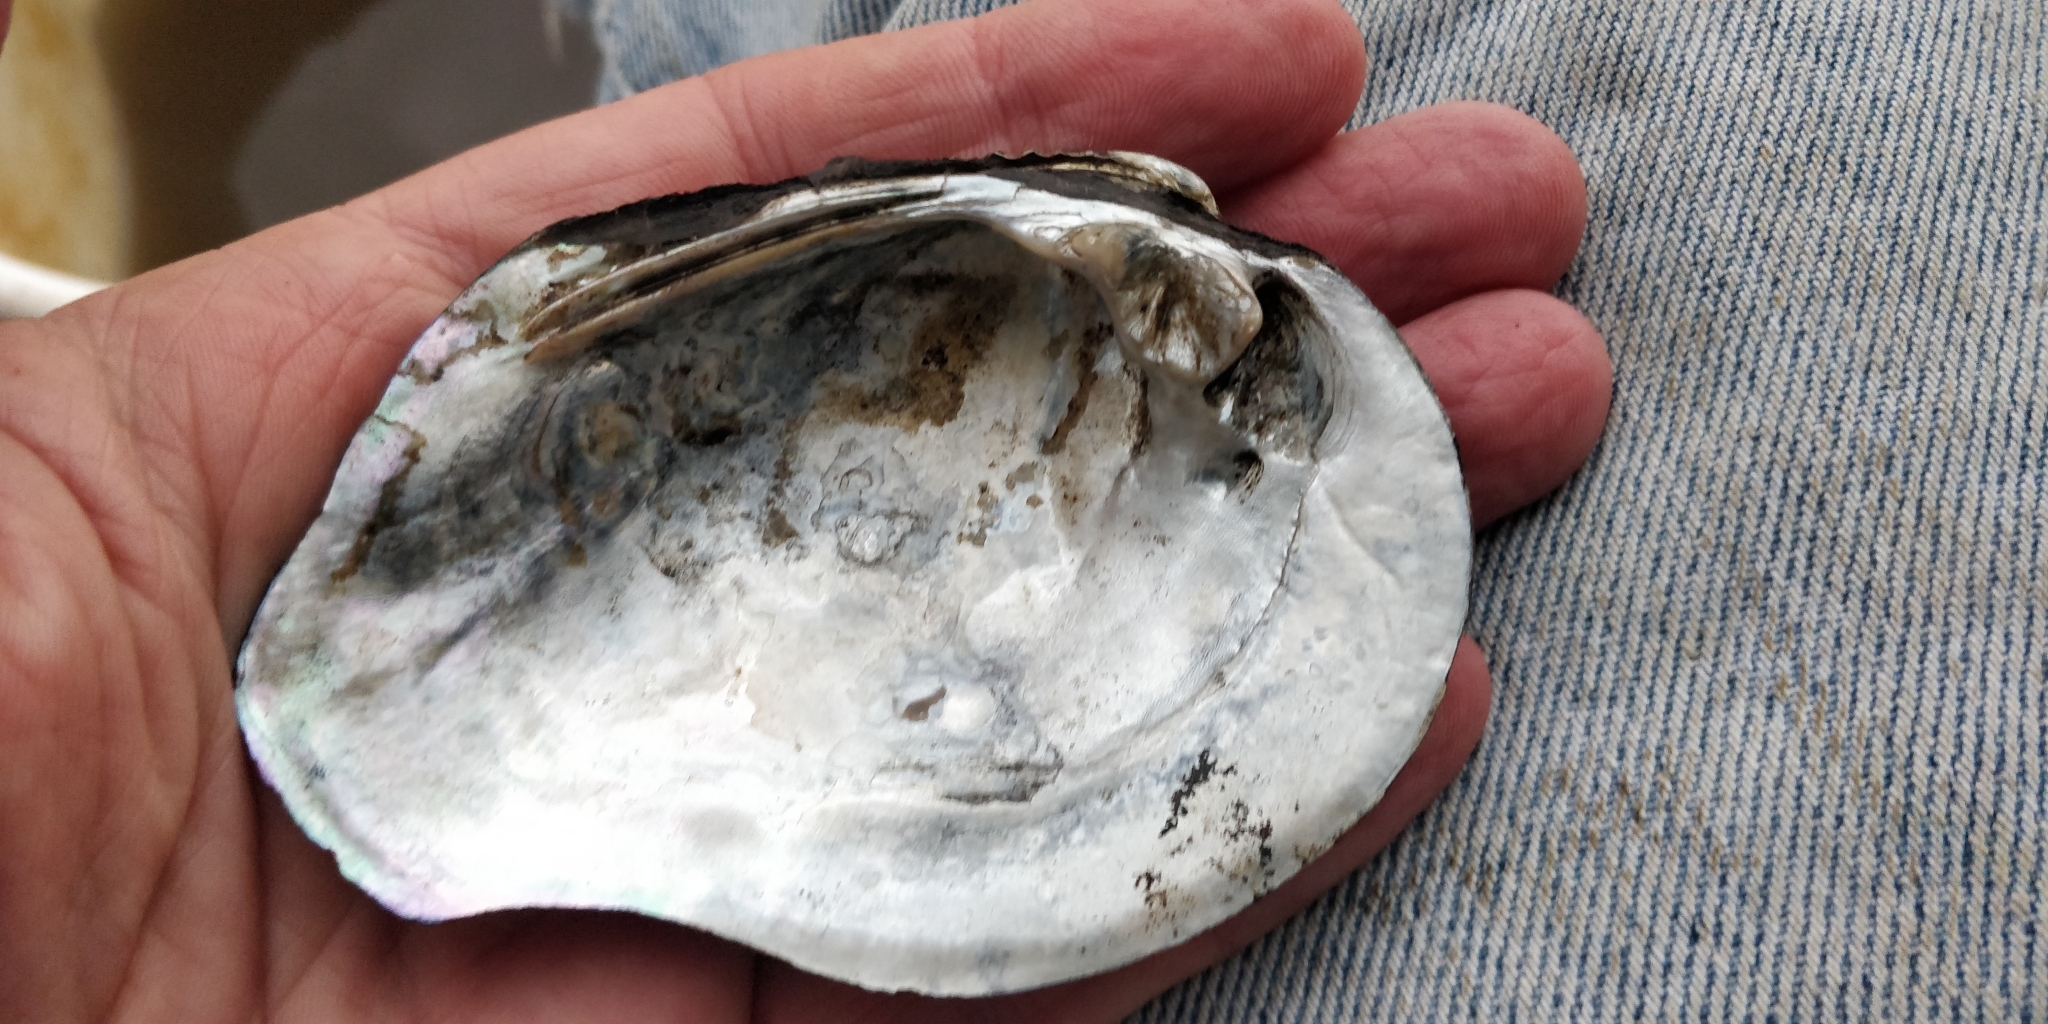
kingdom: Animalia
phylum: Mollusca
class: Bivalvia
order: Unionida
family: Unionidae
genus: Tritogonia
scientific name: Tritogonia nobilis
